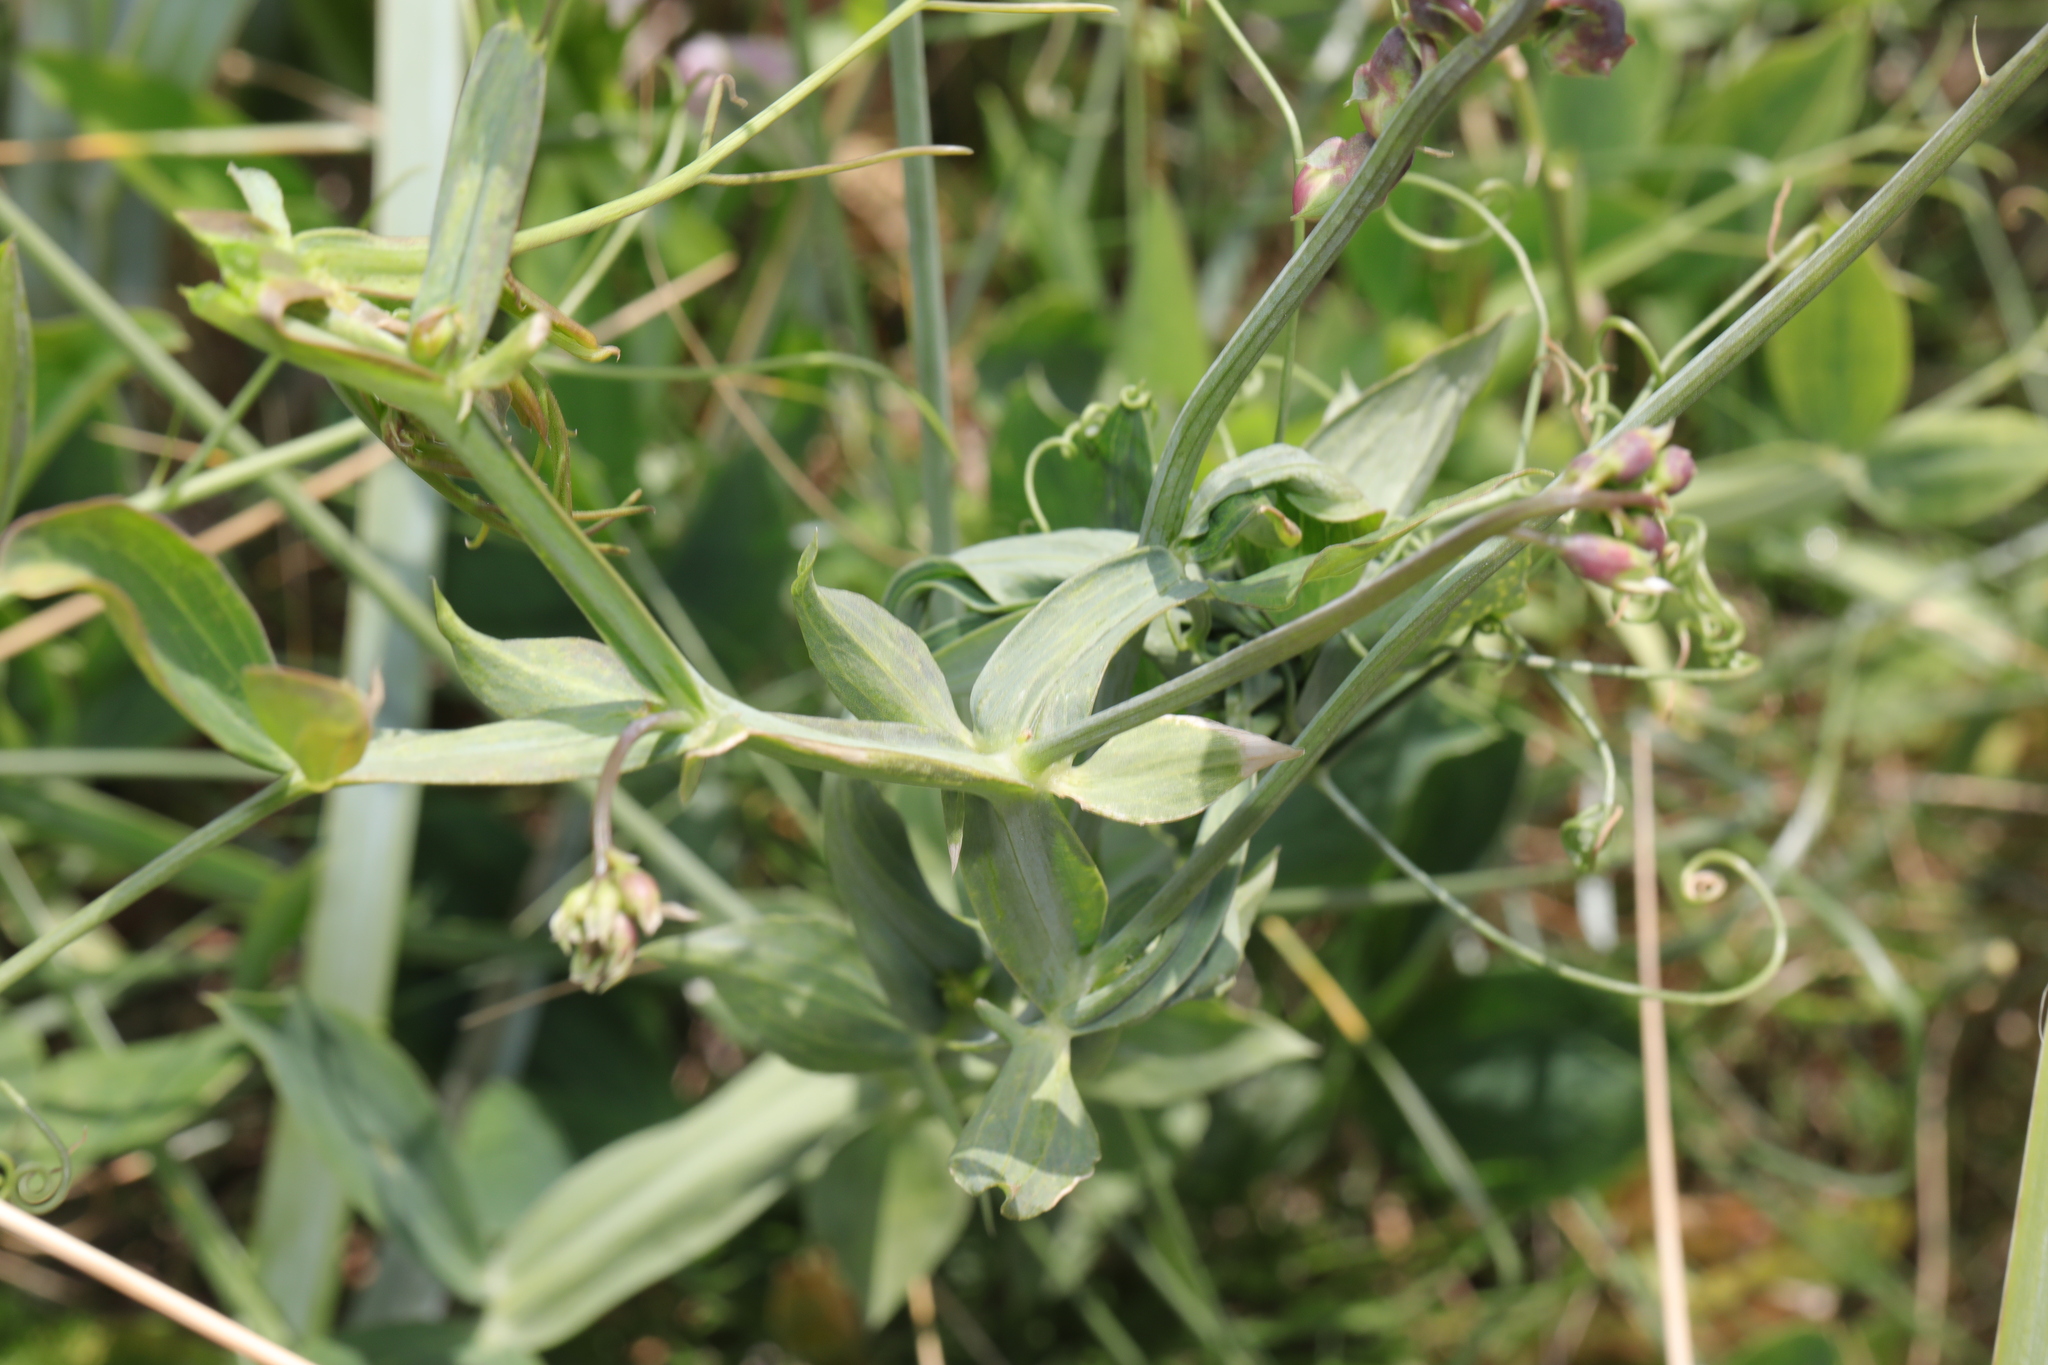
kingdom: Plantae
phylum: Tracheophyta
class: Magnoliopsida
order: Fabales
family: Fabaceae
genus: Lathyrus
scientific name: Lathyrus latifolius
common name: Perennial pea
